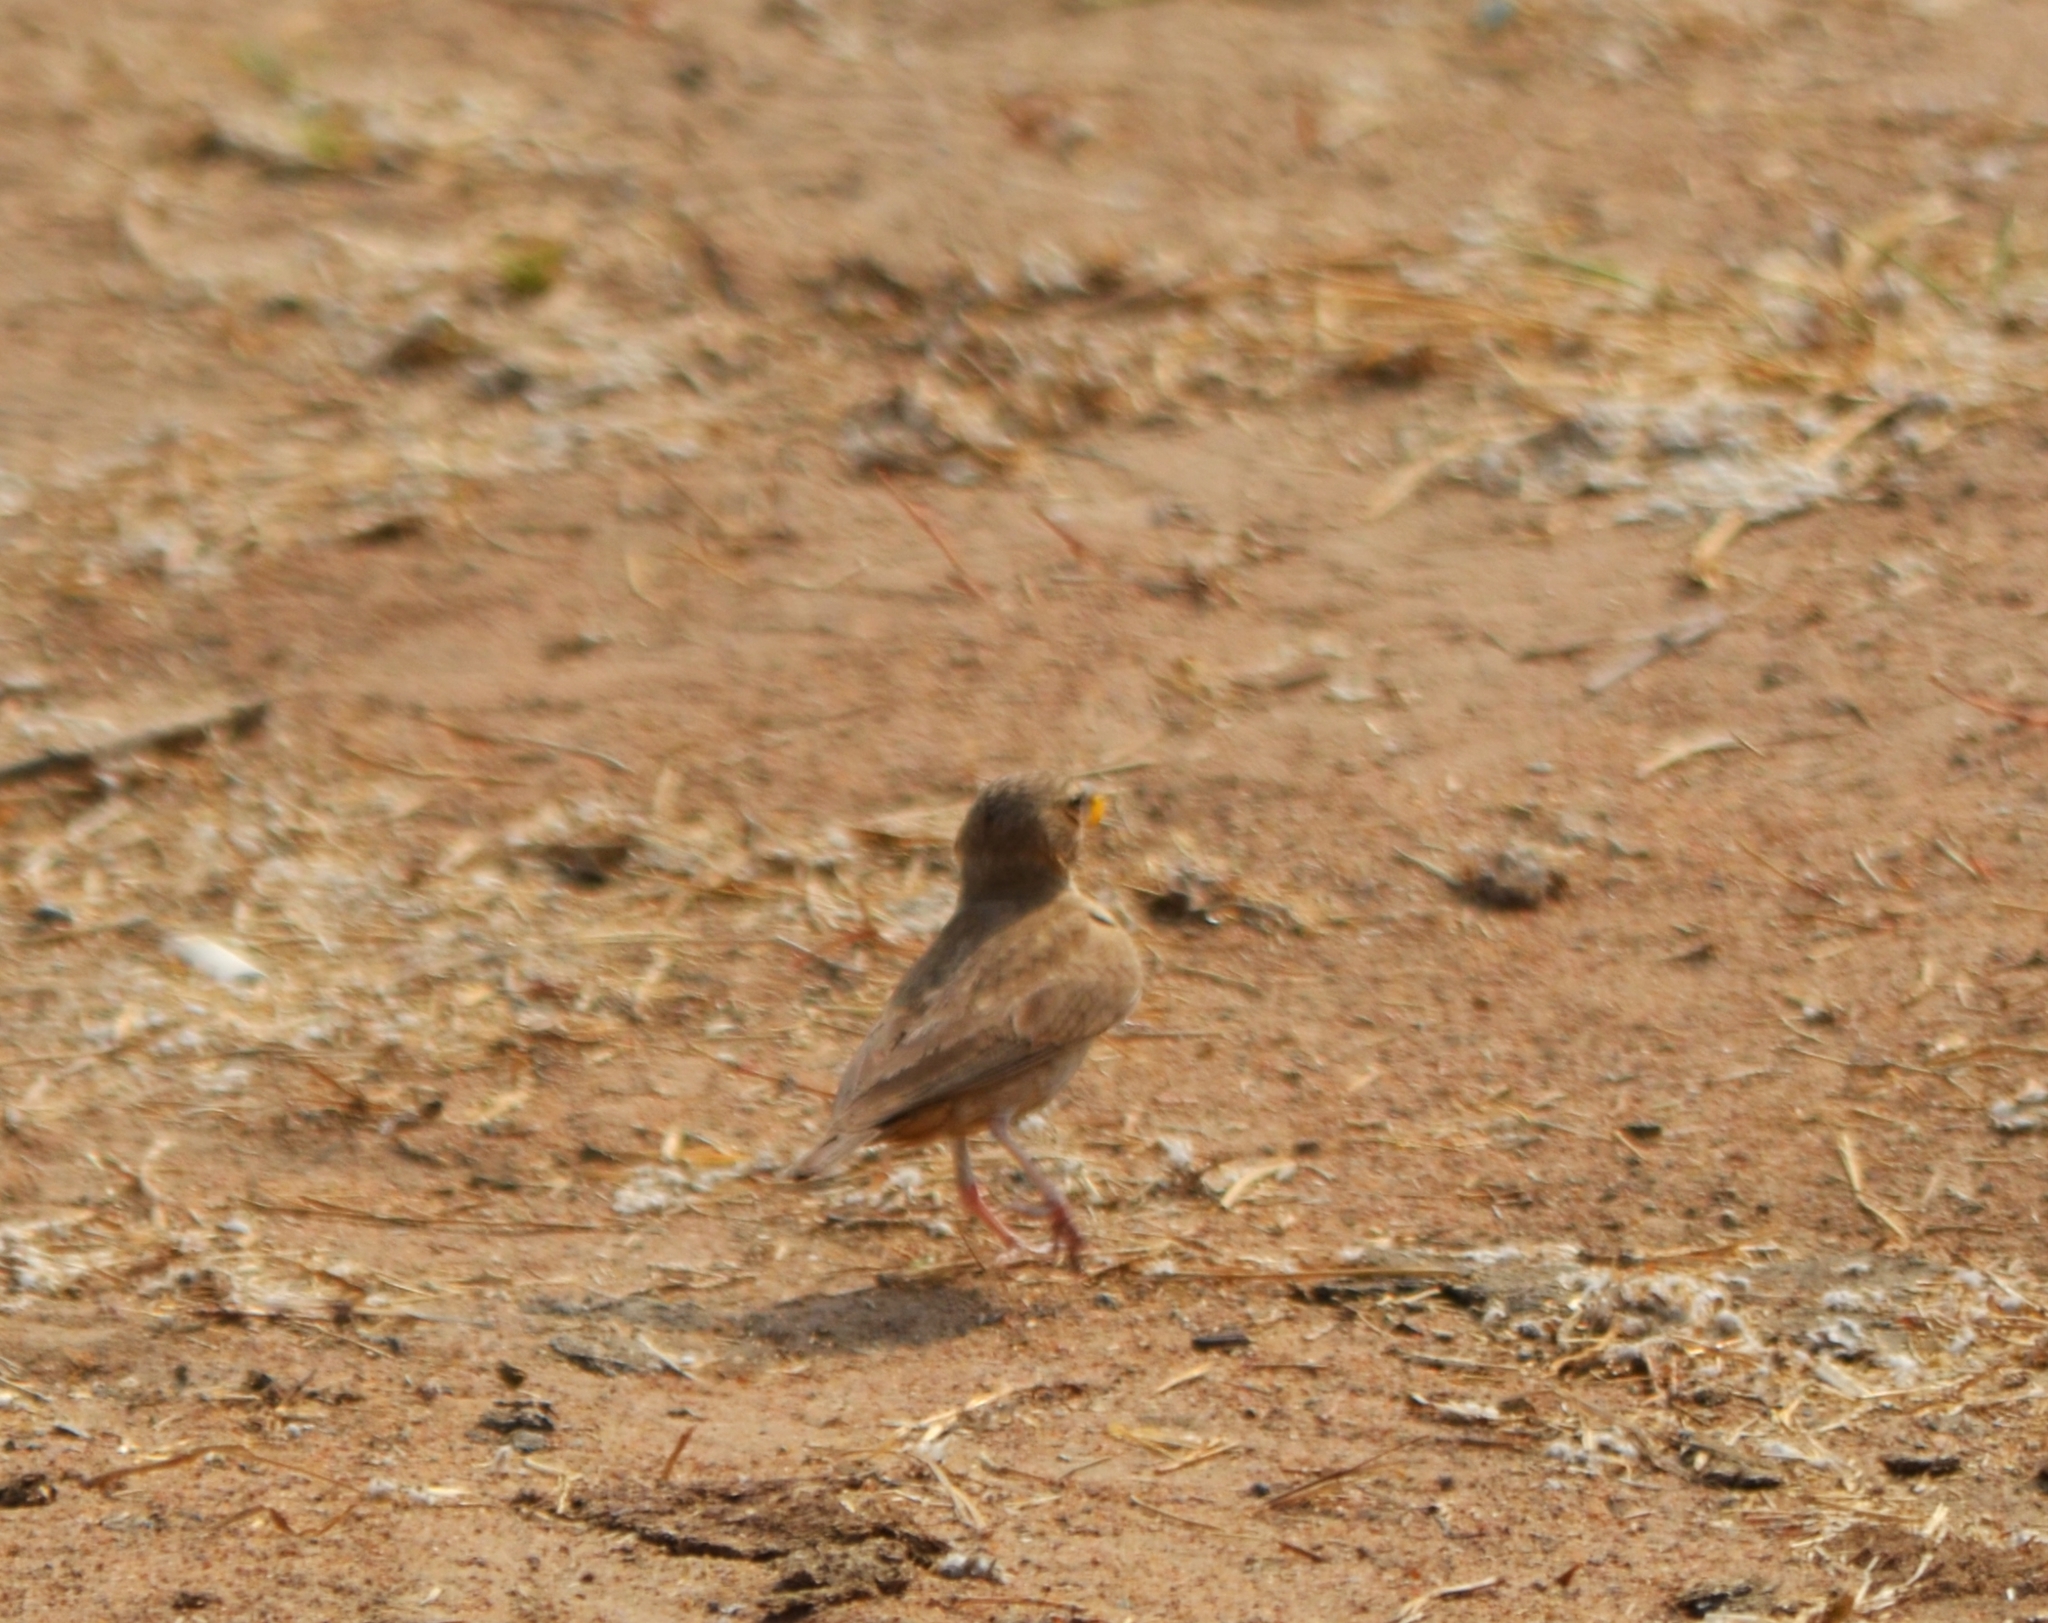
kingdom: Animalia
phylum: Chordata
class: Aves
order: Passeriformes
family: Alaudidae
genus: Eremopterix
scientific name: Eremopterix griseus
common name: Ashy-crowned sparrow-lark
